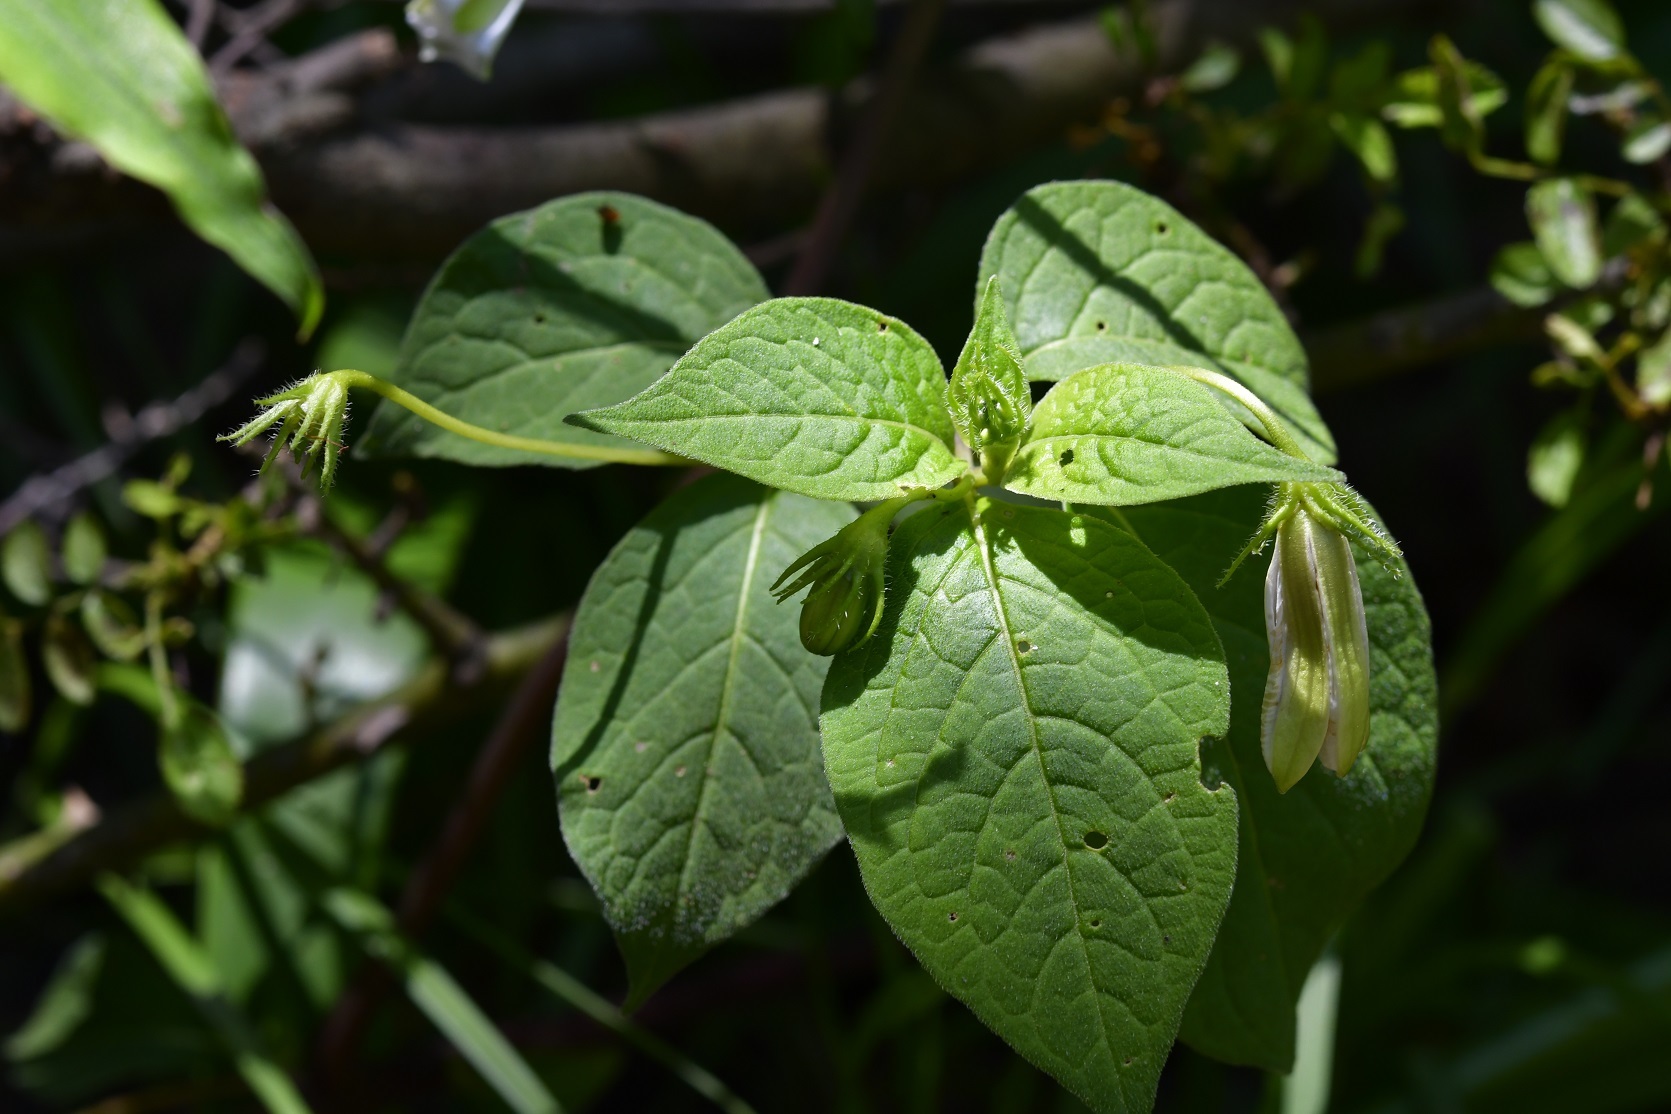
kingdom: Plantae
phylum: Tracheophyta
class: Magnoliopsida
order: Solanales
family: Solanaceae
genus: Lycianthes
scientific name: Lycianthes ciliolata
